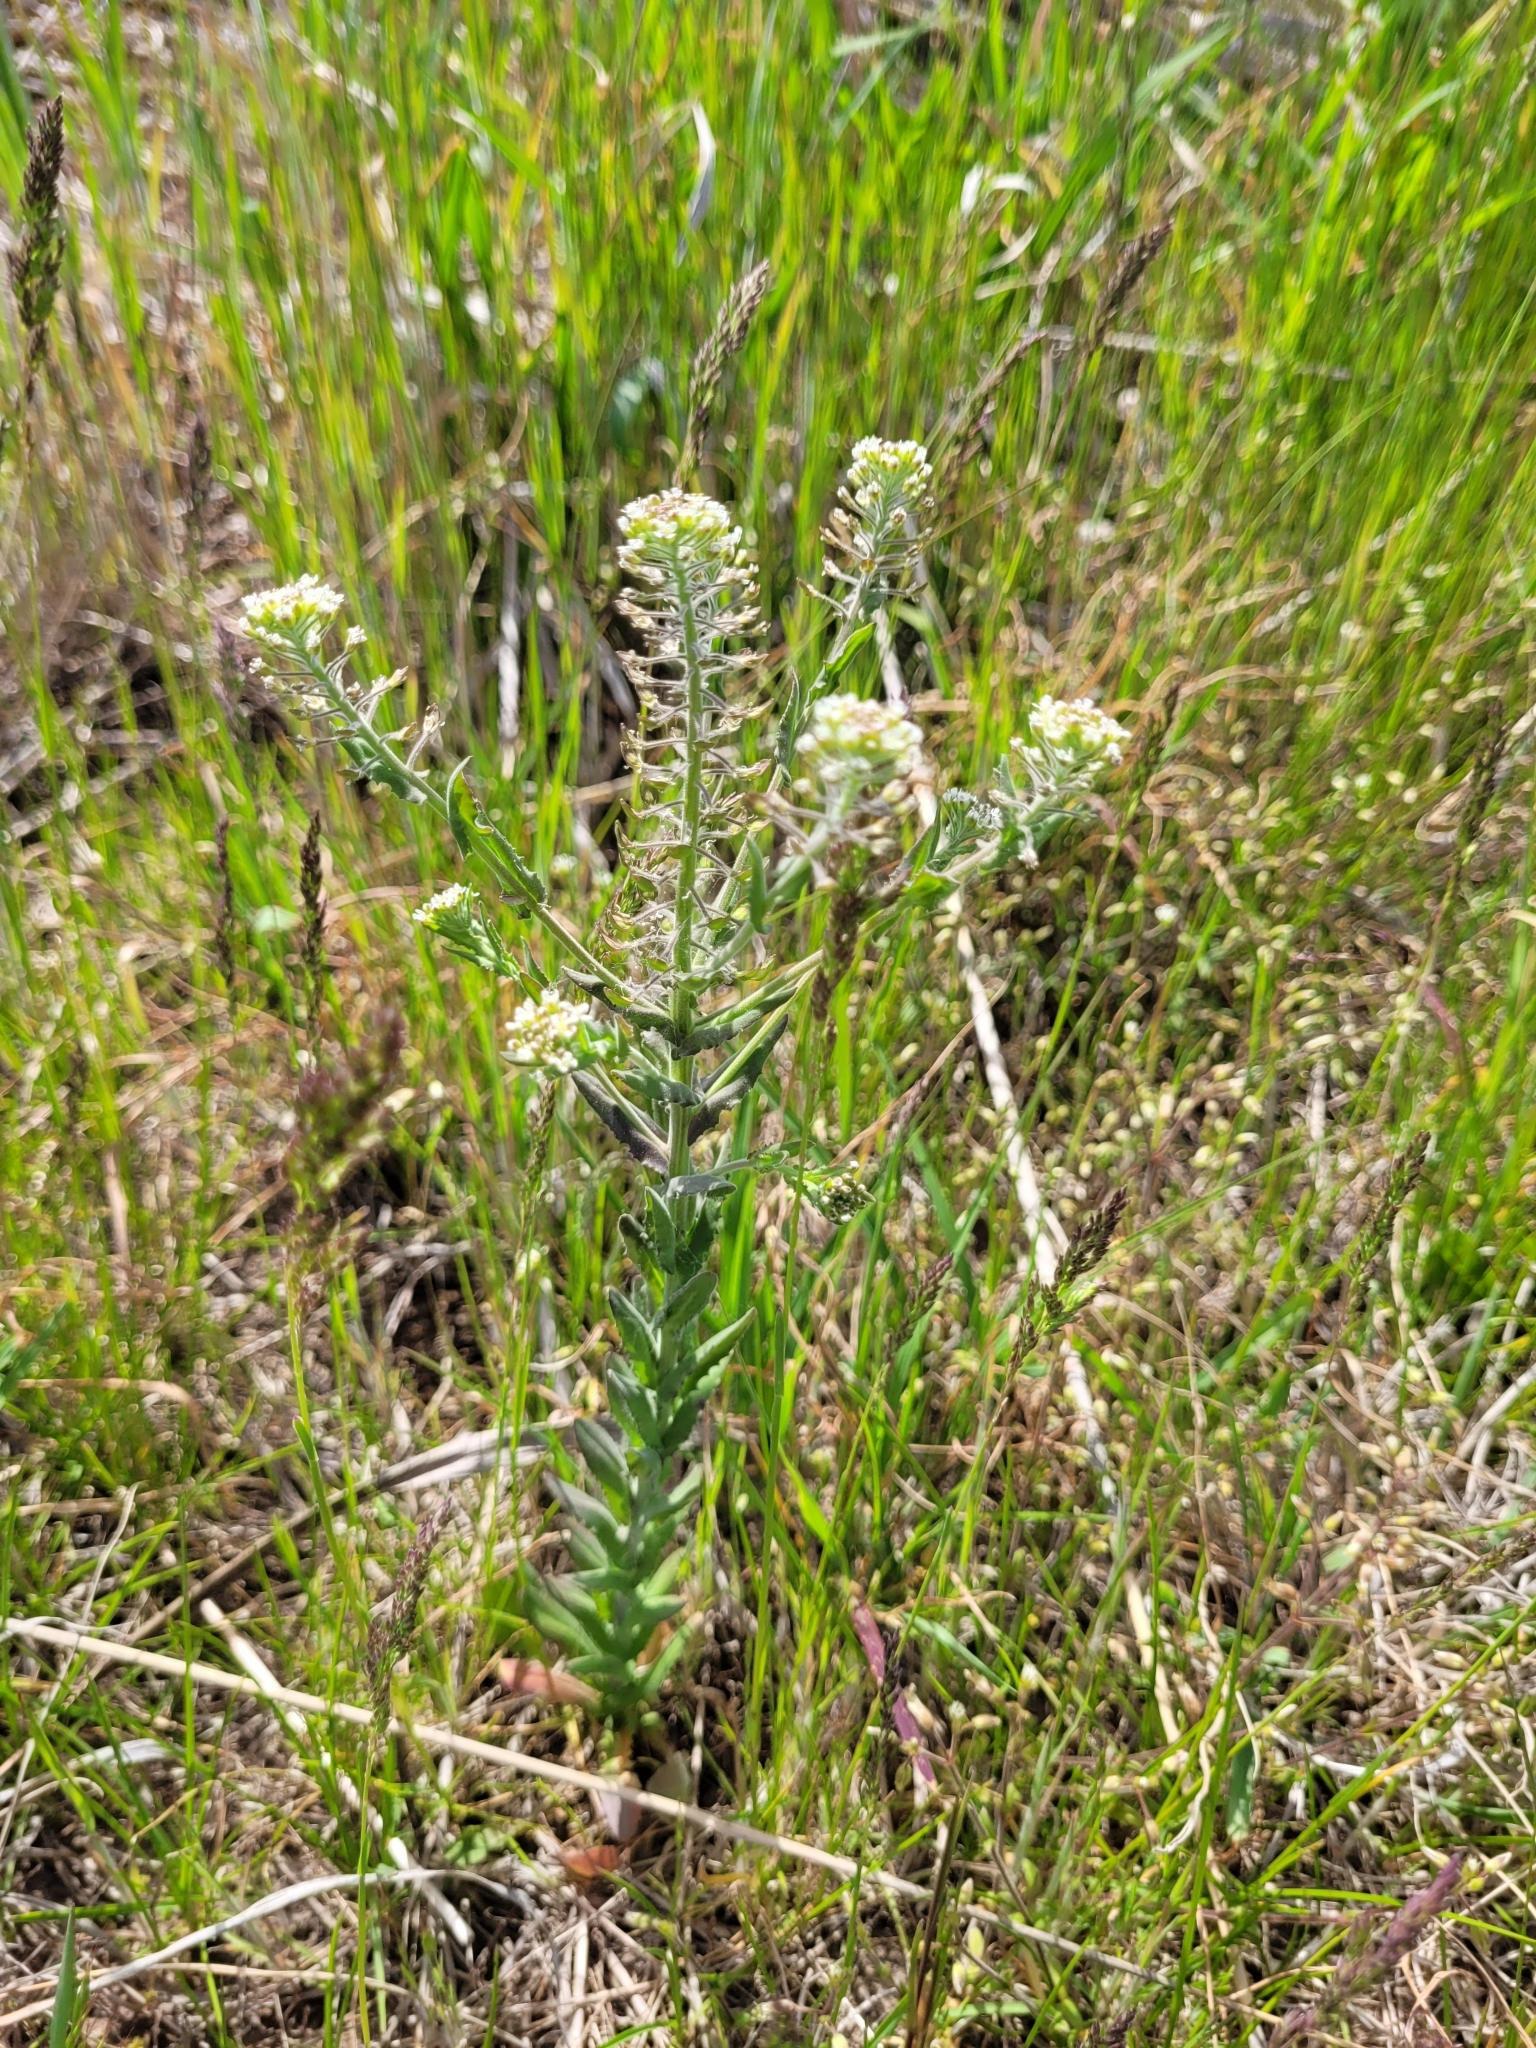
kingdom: Plantae
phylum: Tracheophyta
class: Magnoliopsida
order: Brassicales
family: Brassicaceae
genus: Lepidium
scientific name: Lepidium campestre
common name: Field pepperwort
